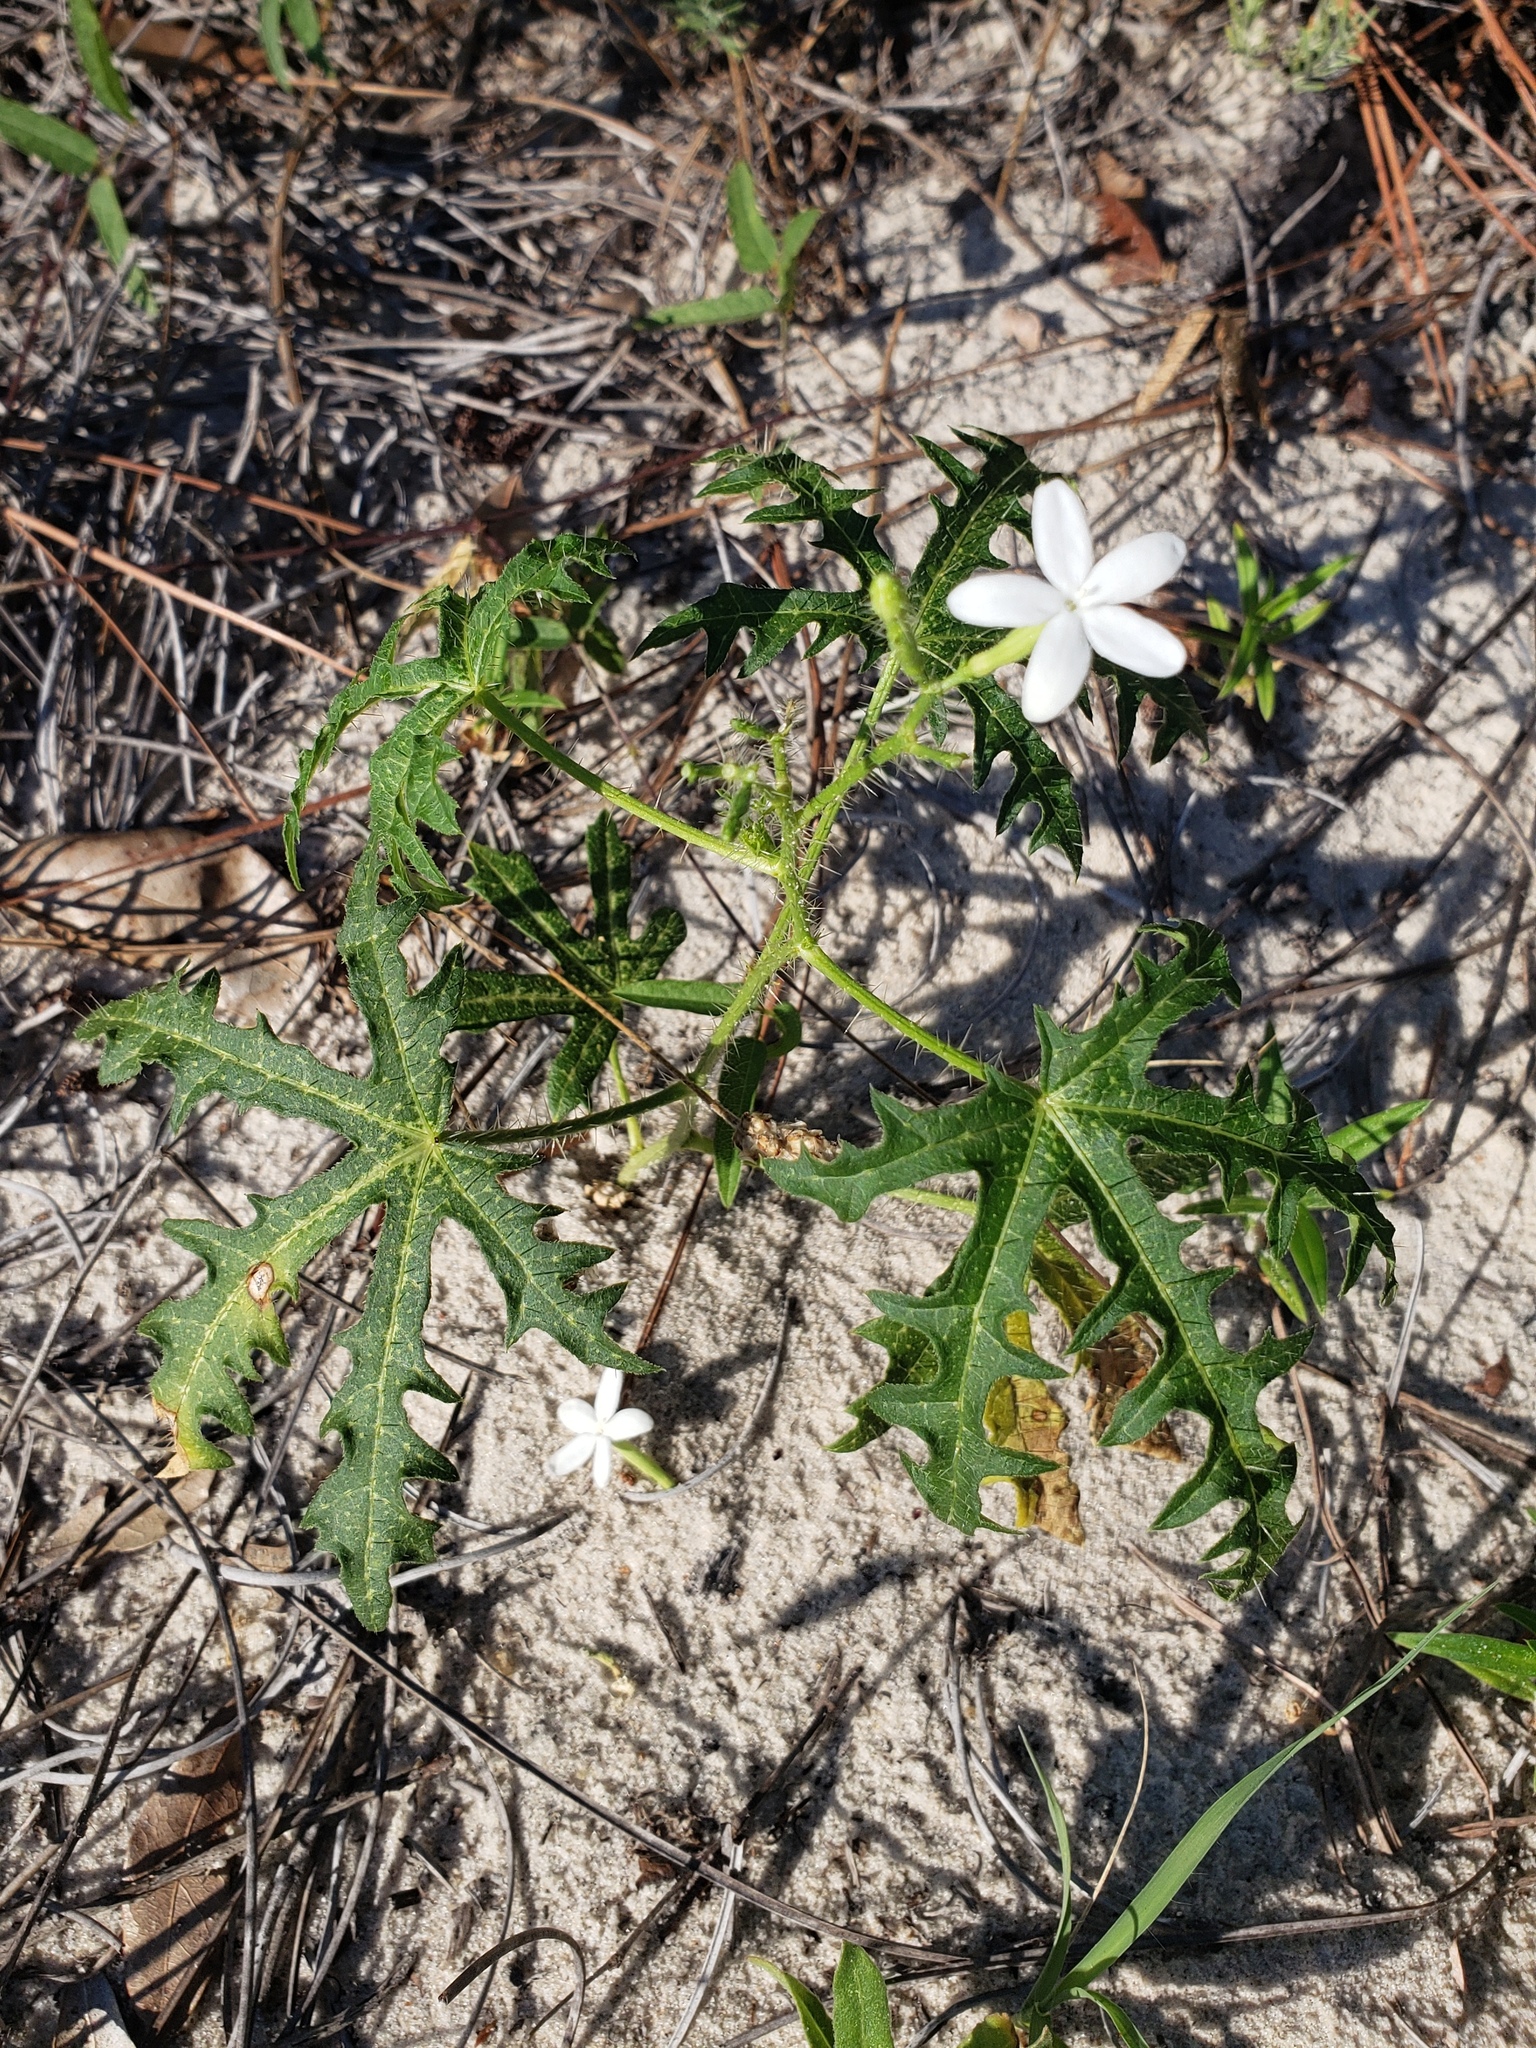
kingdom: Plantae
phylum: Tracheophyta
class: Magnoliopsida
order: Malpighiales
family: Euphorbiaceae
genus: Cnidoscolus
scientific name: Cnidoscolus stimulosus
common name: Bull-nettle
